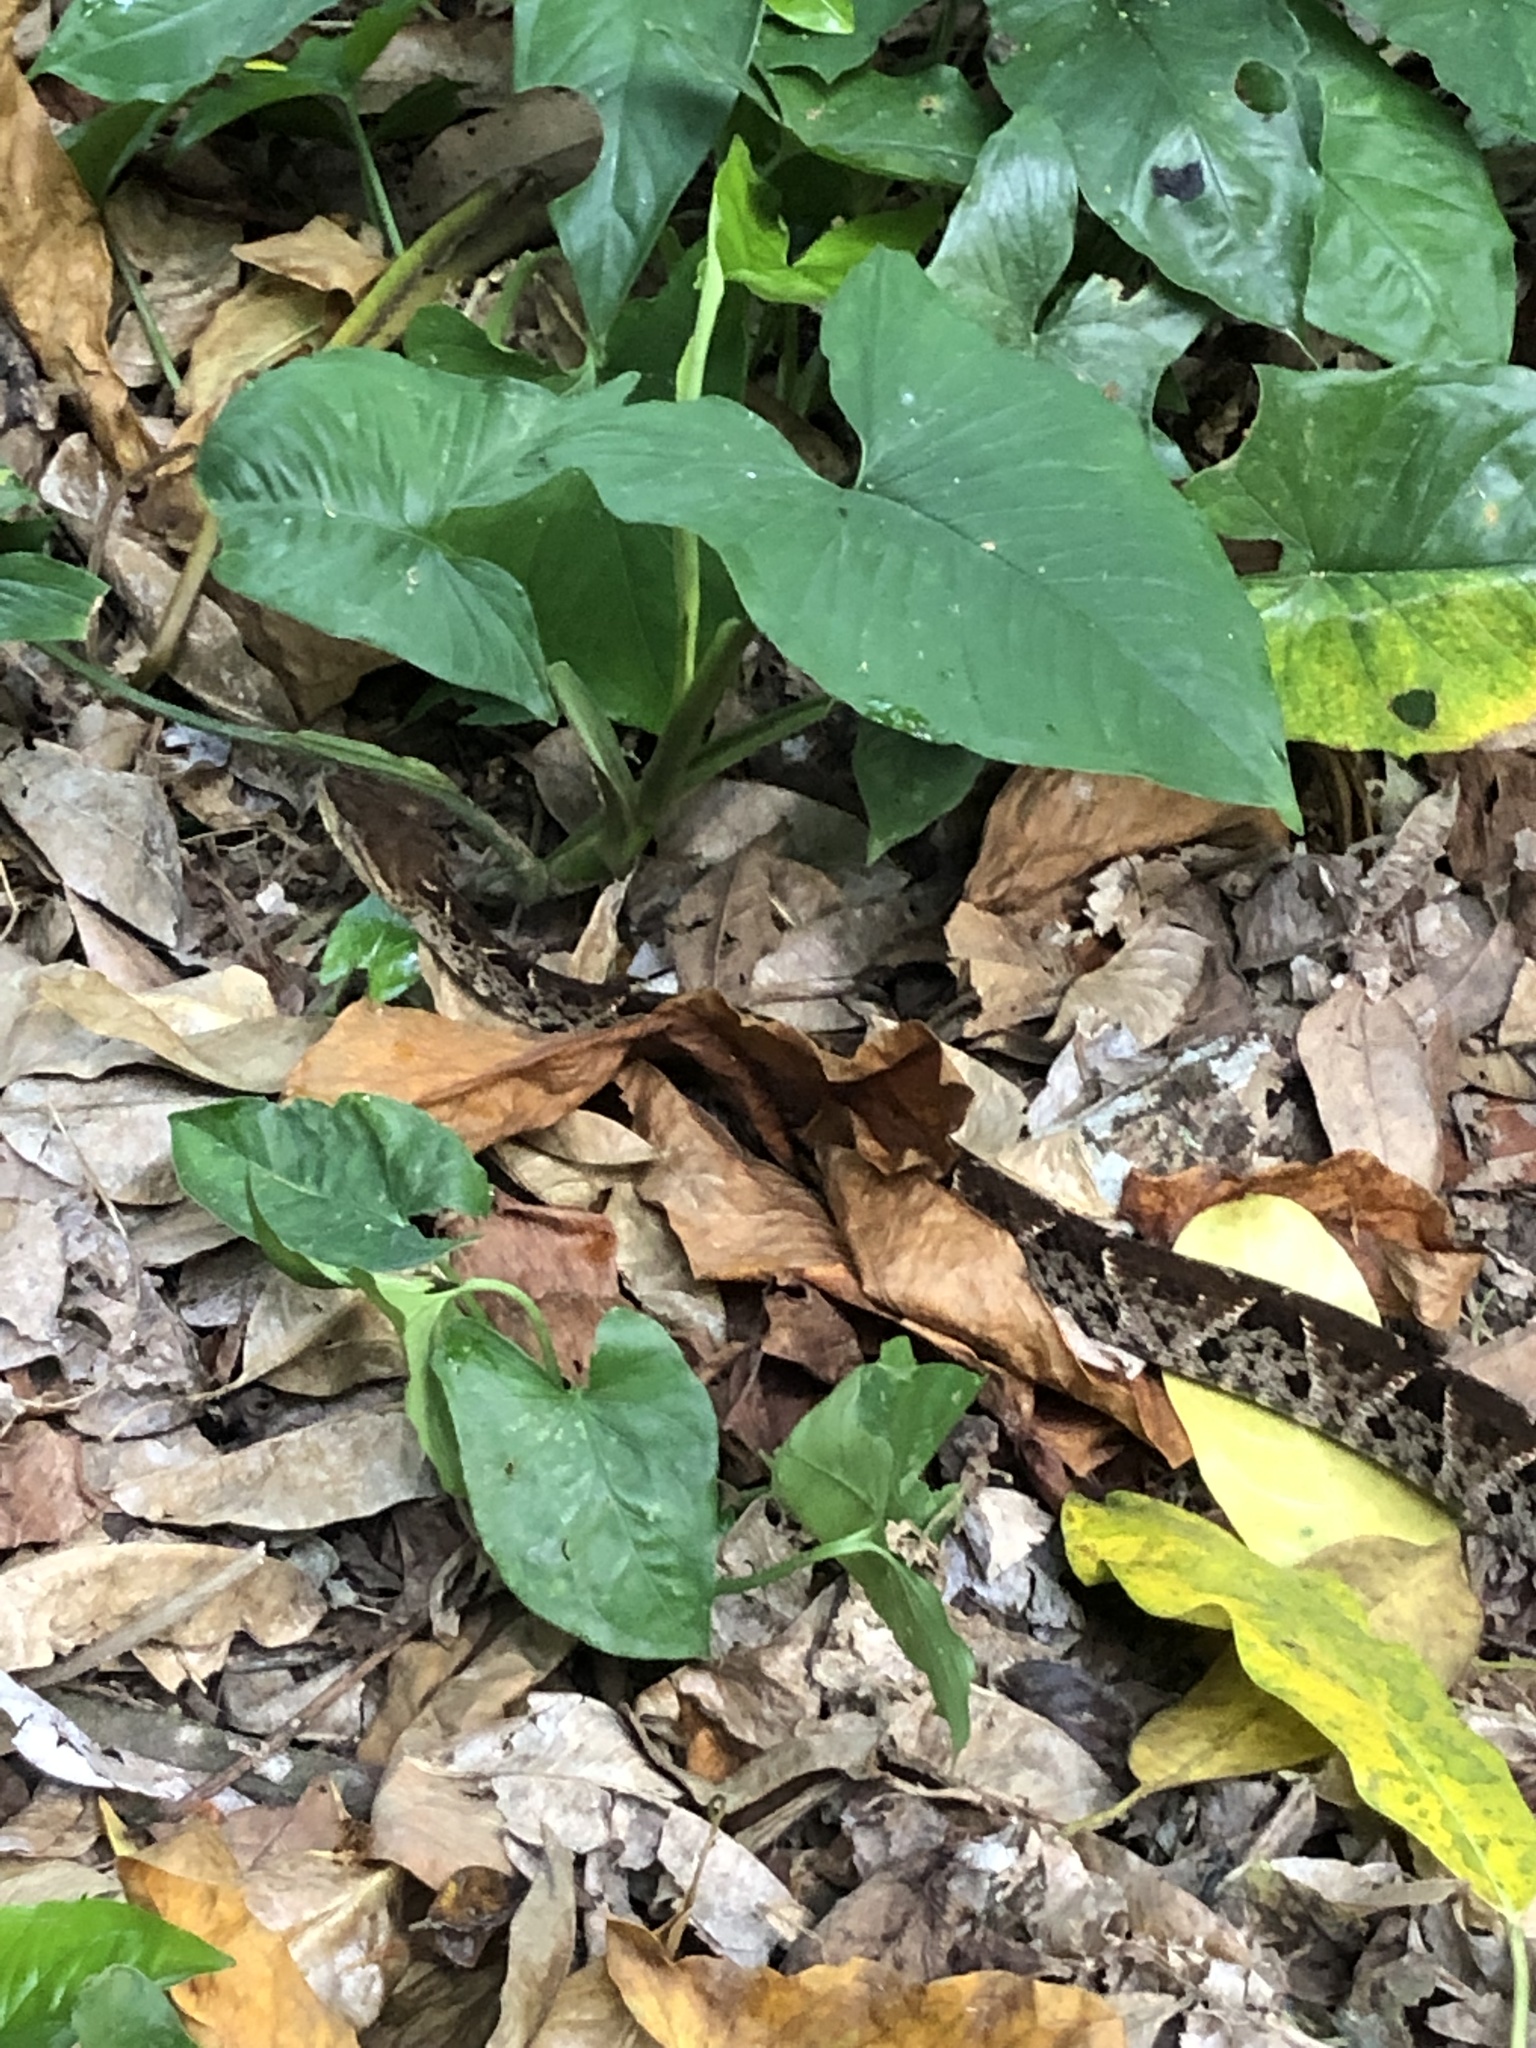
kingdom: Animalia
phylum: Chordata
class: Squamata
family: Viperidae
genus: Bothrops
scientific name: Bothrops asper
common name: Terciopelo
